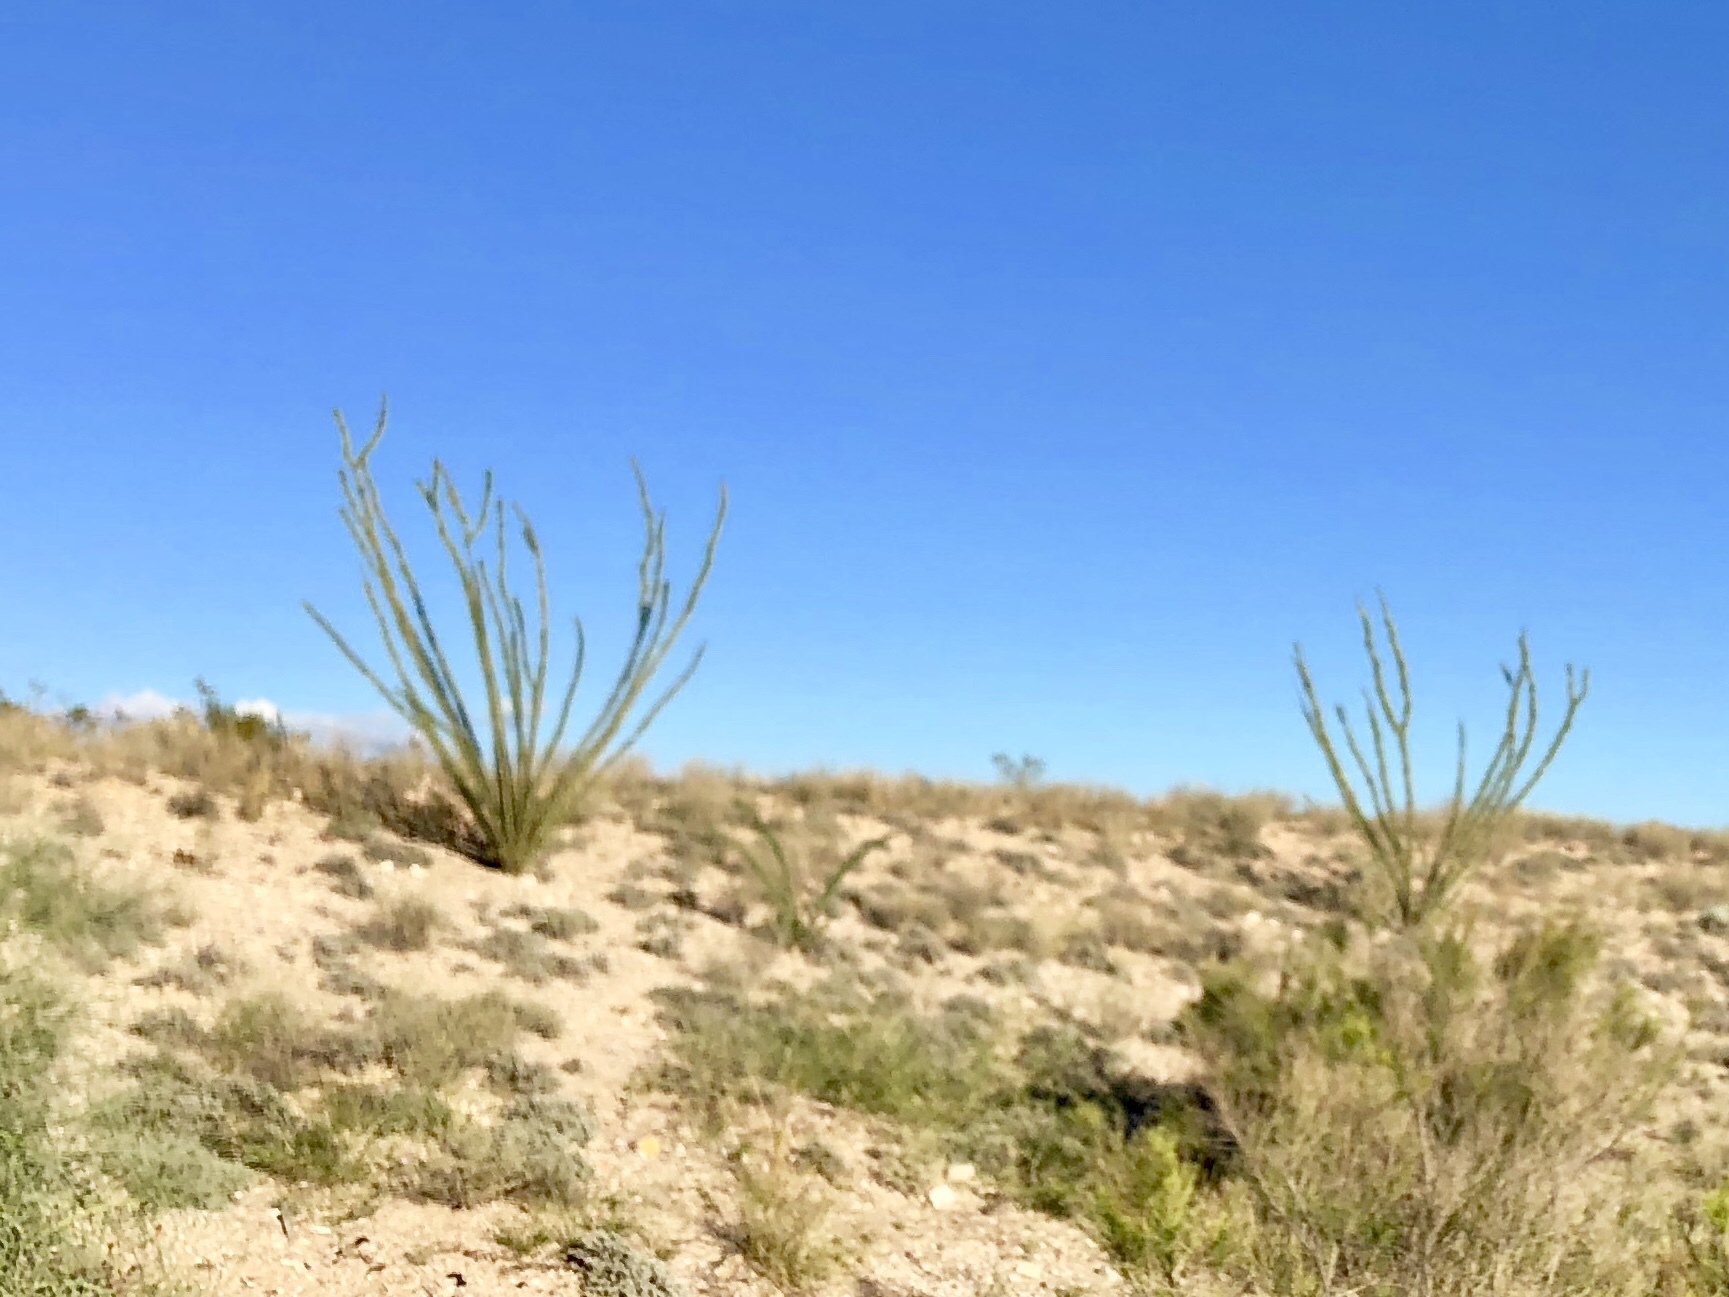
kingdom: Plantae
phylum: Tracheophyta
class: Magnoliopsida
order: Ericales
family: Fouquieriaceae
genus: Fouquieria
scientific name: Fouquieria splendens
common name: Vine-cactus
